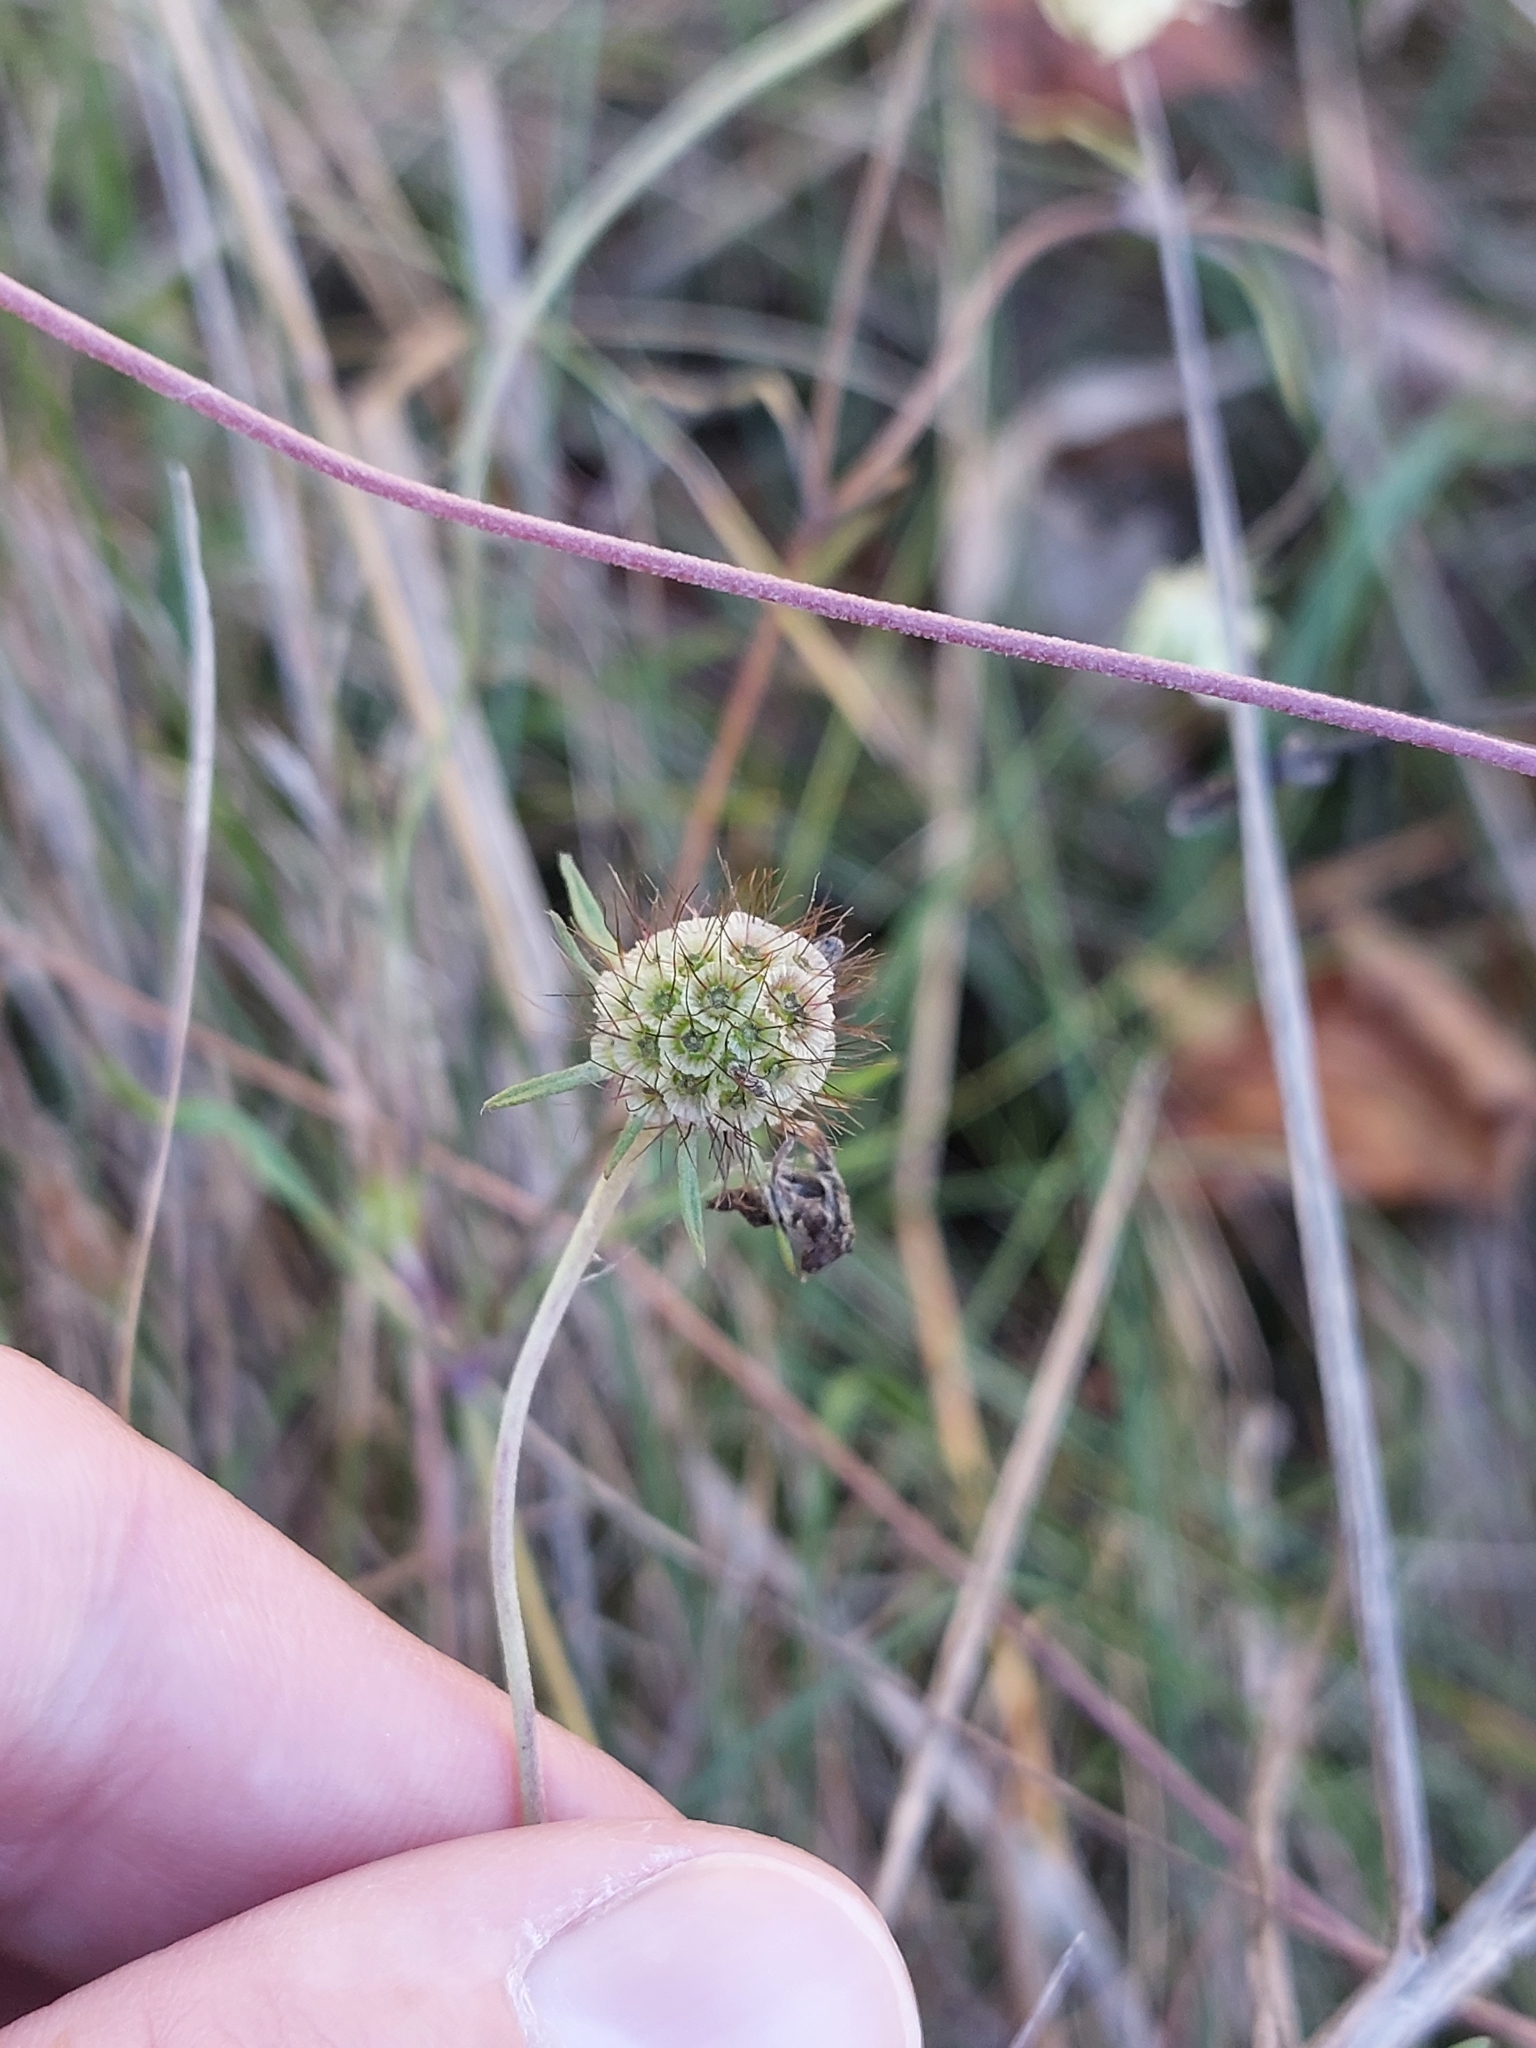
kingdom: Plantae
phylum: Tracheophyta
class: Magnoliopsida
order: Dipsacales
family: Caprifoliaceae
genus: Scabiosa
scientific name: Scabiosa ochroleuca
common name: Cream pincushions
